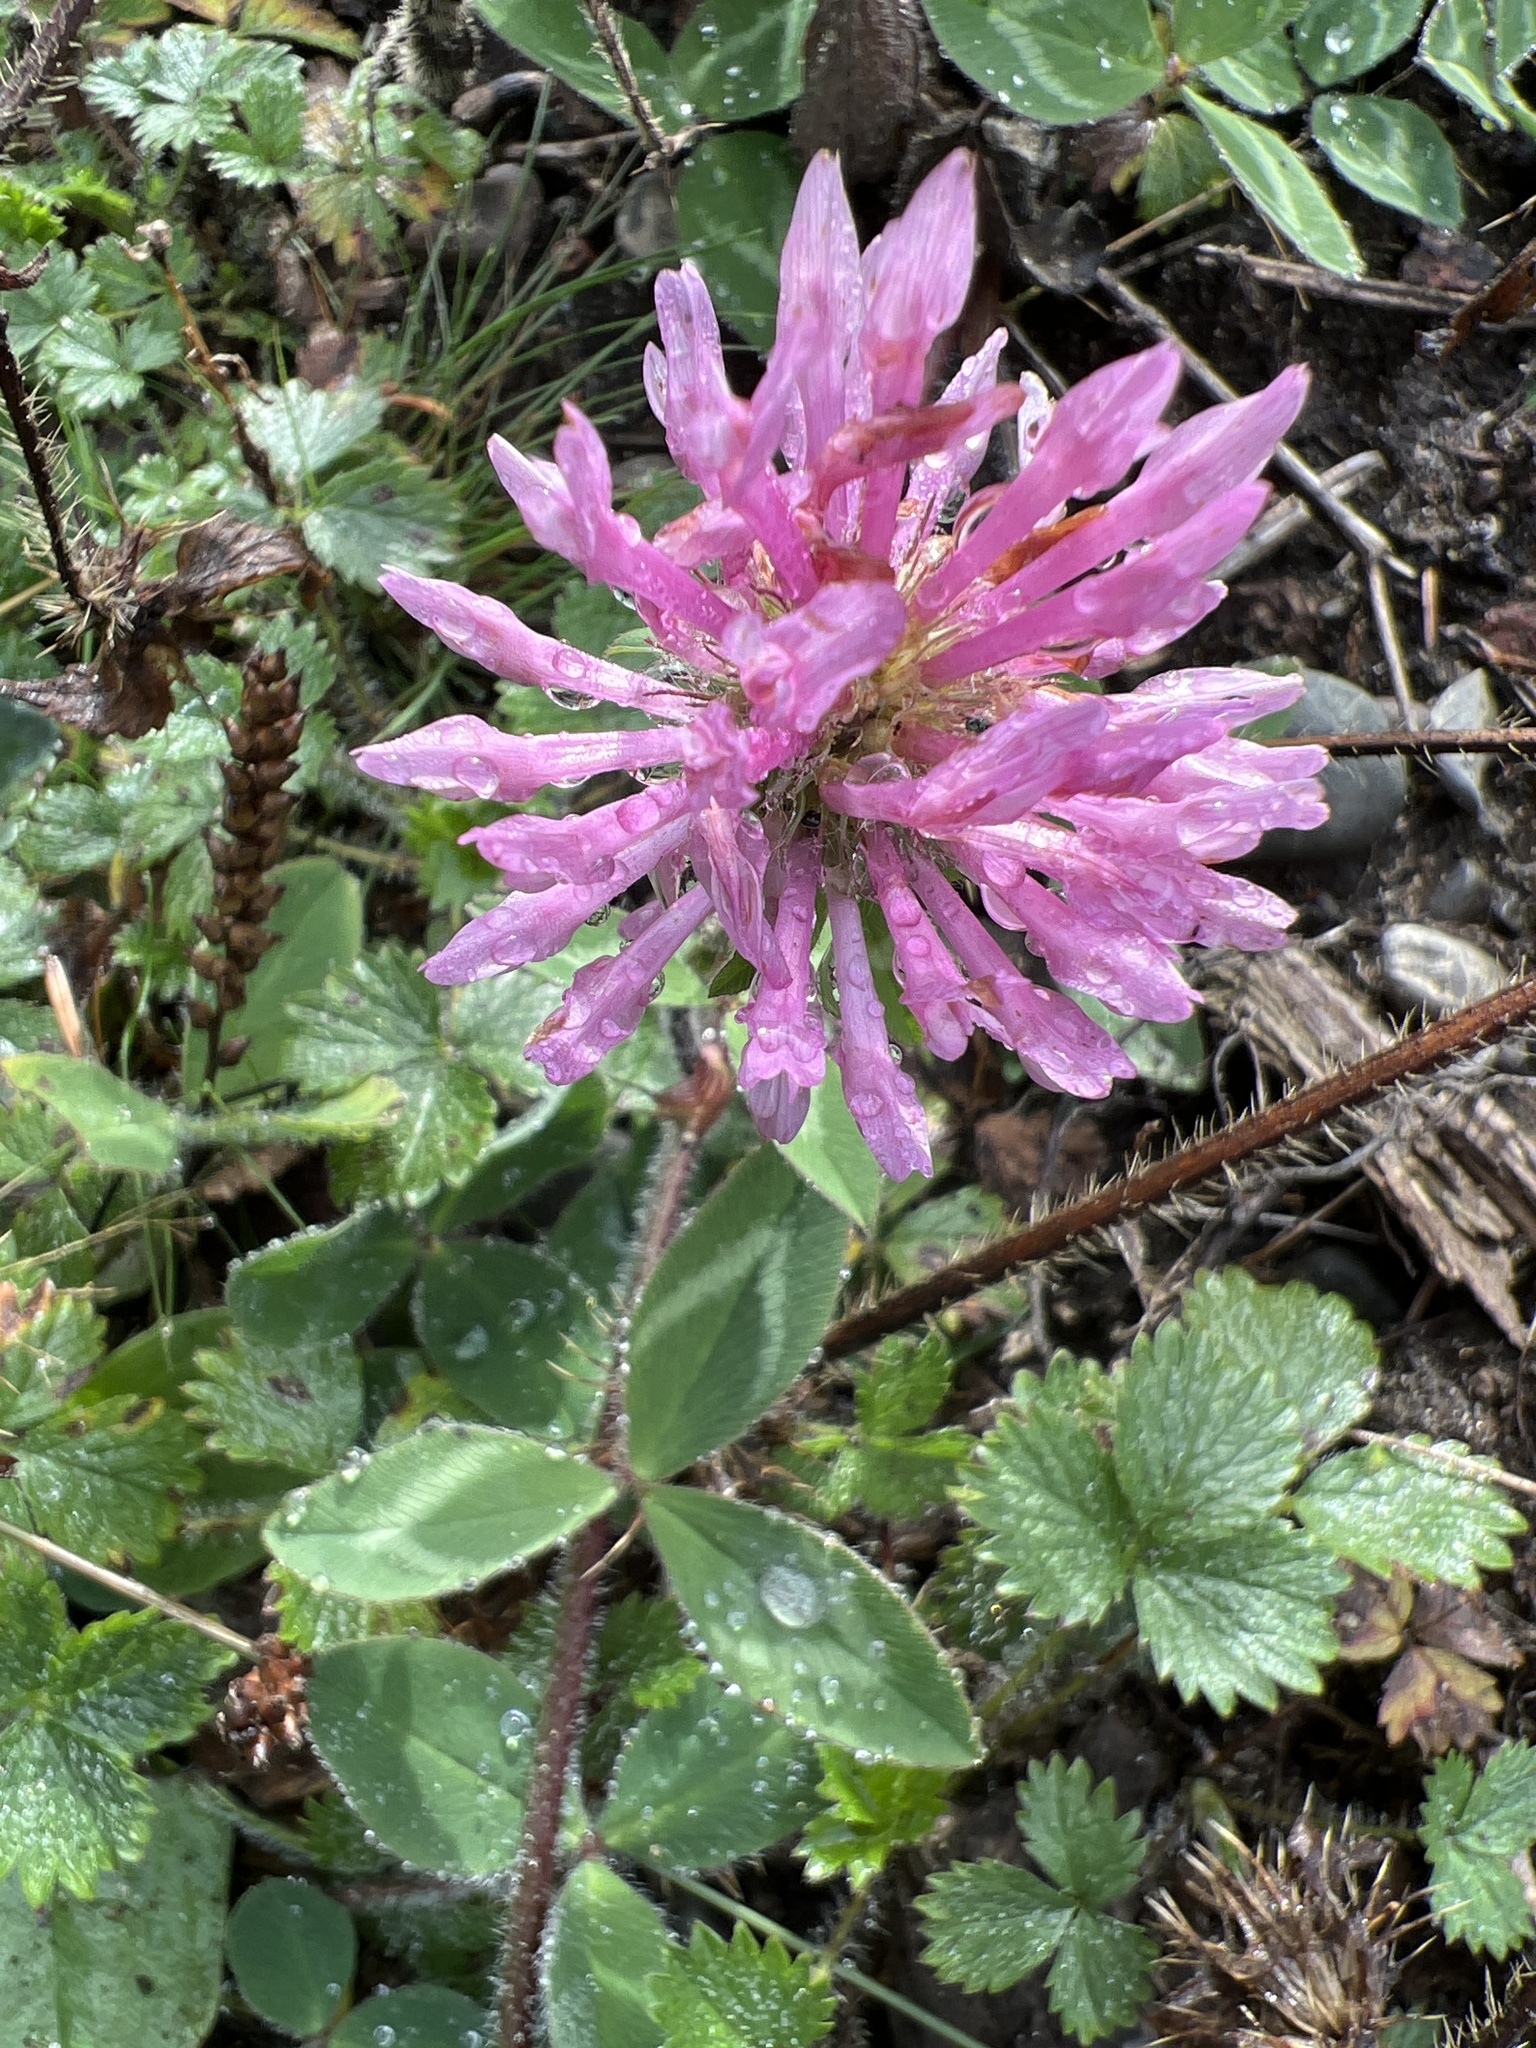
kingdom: Plantae
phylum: Tracheophyta
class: Magnoliopsida
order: Fabales
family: Fabaceae
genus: Trifolium
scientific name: Trifolium pratense
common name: Red clover
